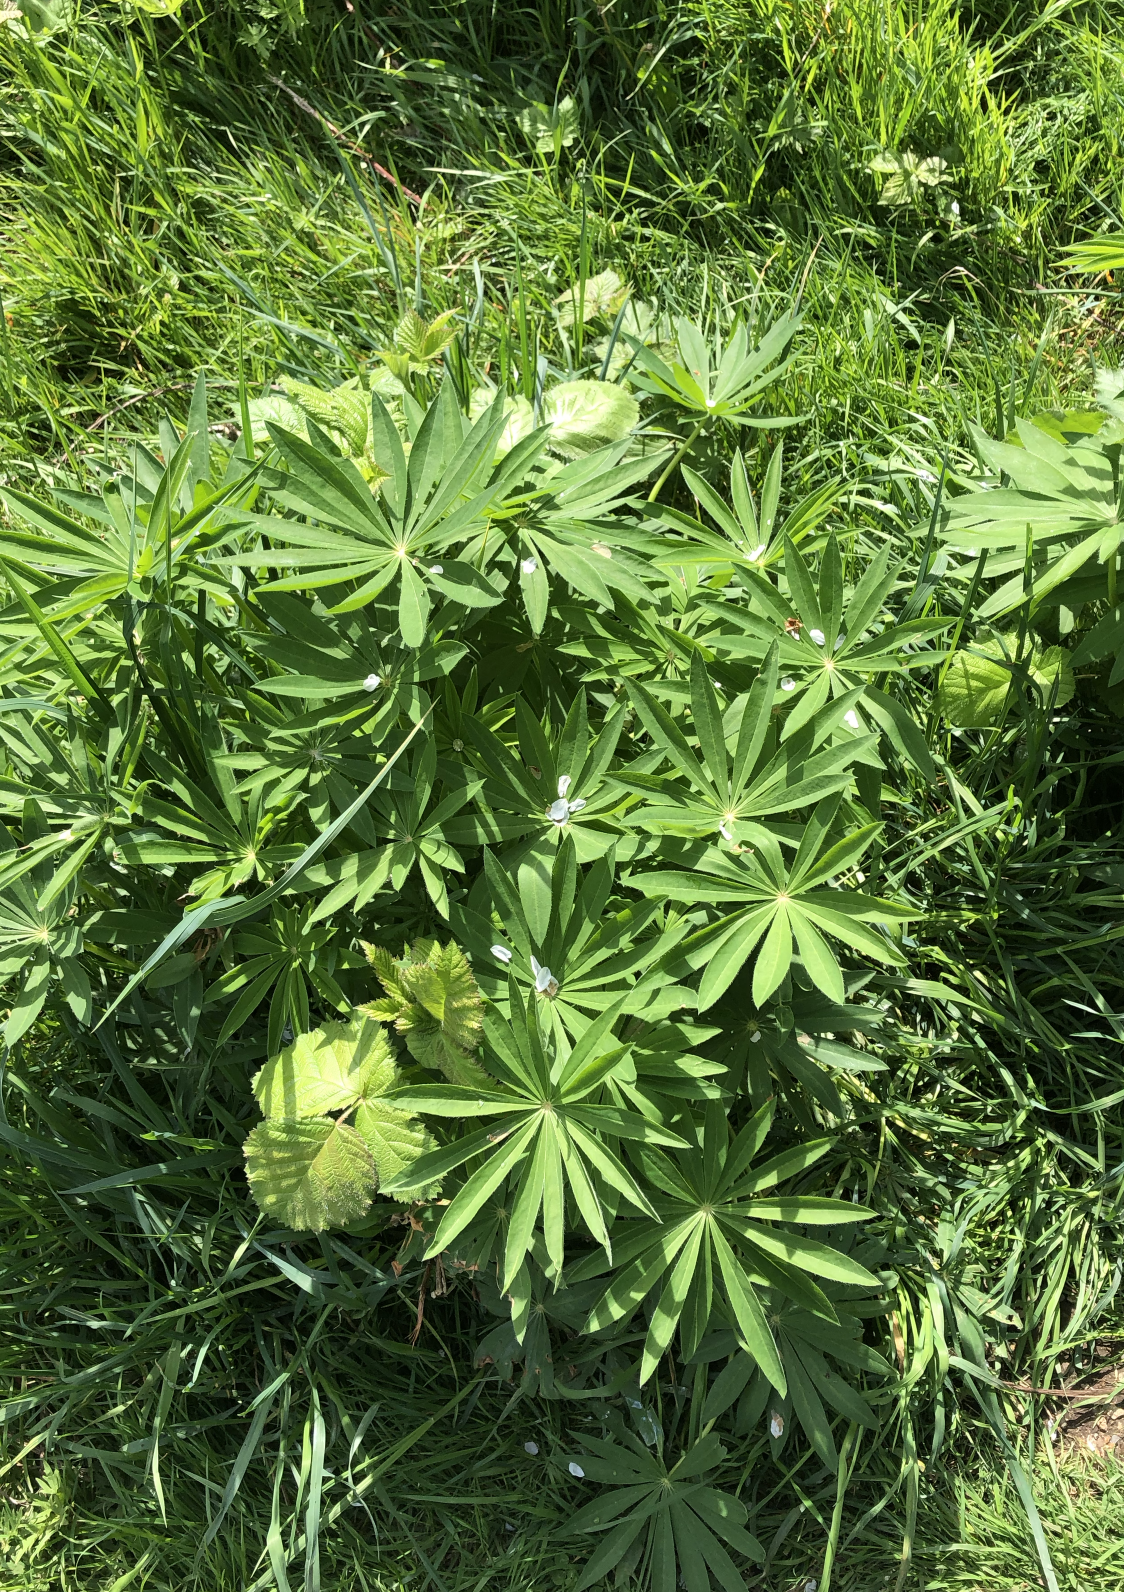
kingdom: Plantae
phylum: Tracheophyta
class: Magnoliopsida
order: Fabales
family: Fabaceae
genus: Lupinus
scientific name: Lupinus polyphyllus
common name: Garden lupin
